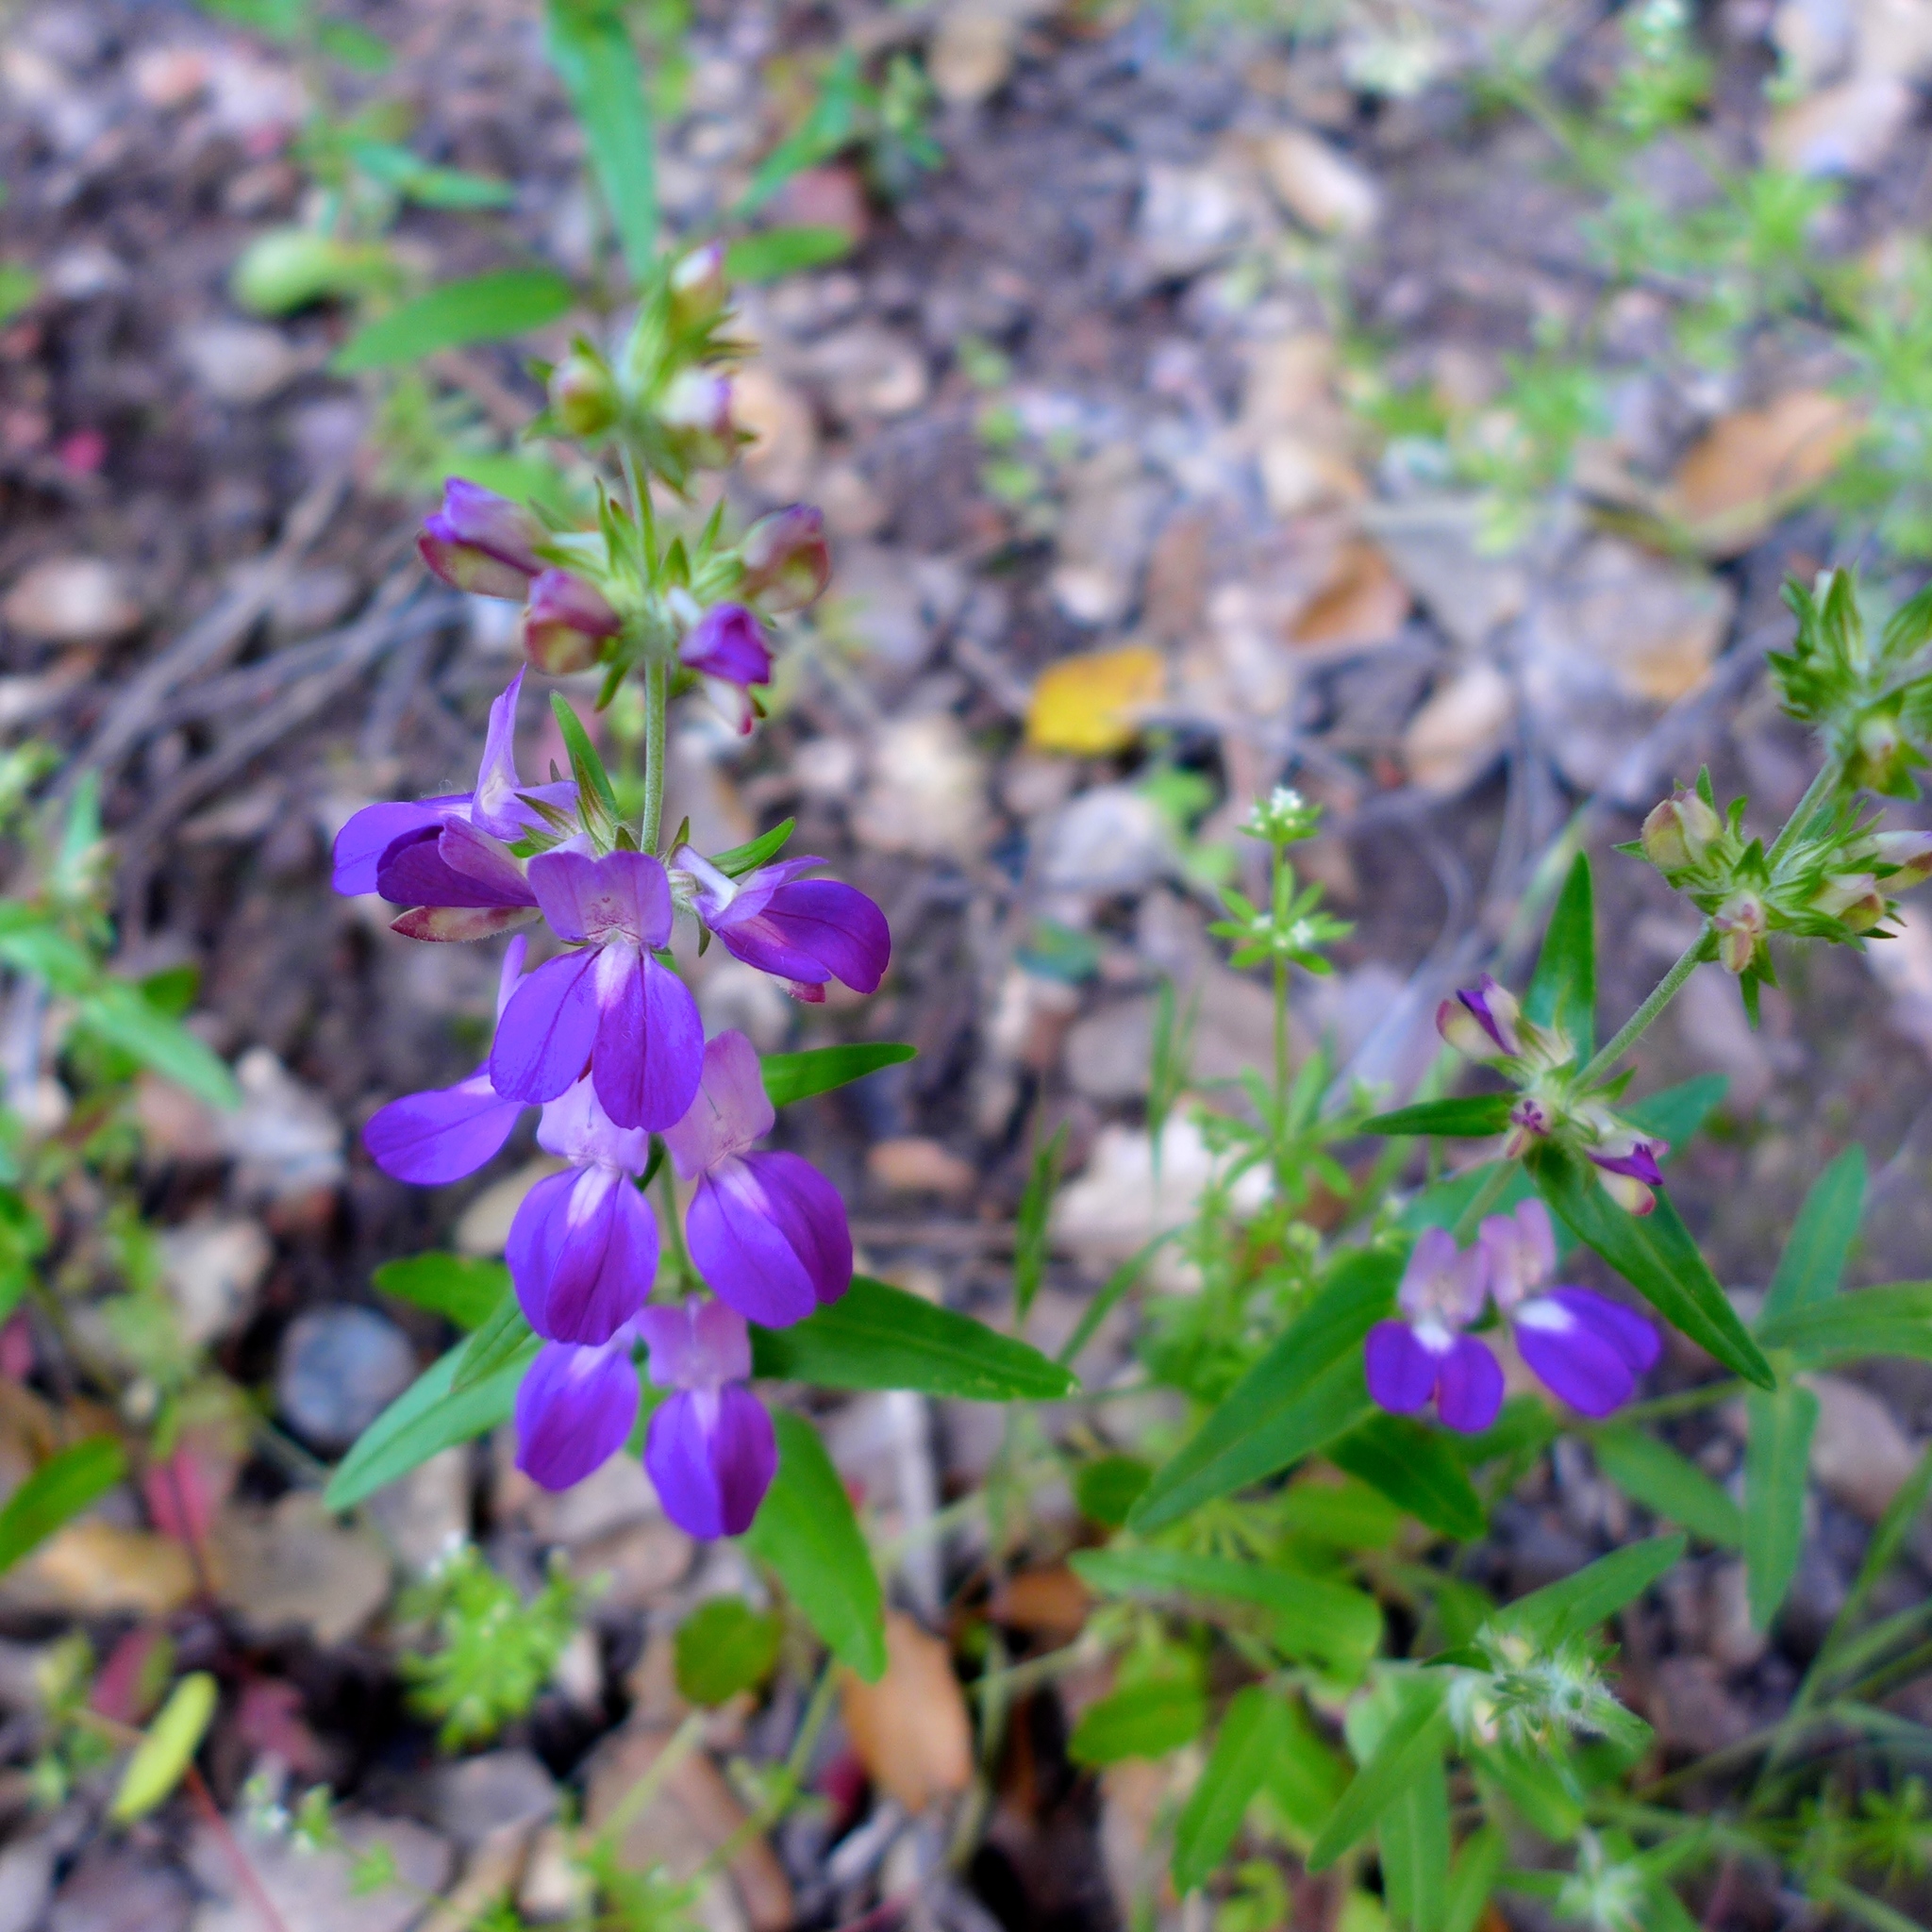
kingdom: Plantae
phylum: Tracheophyta
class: Magnoliopsida
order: Lamiales
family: Plantaginaceae
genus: Collinsia
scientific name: Collinsia heterophylla
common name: Chinese-houses
